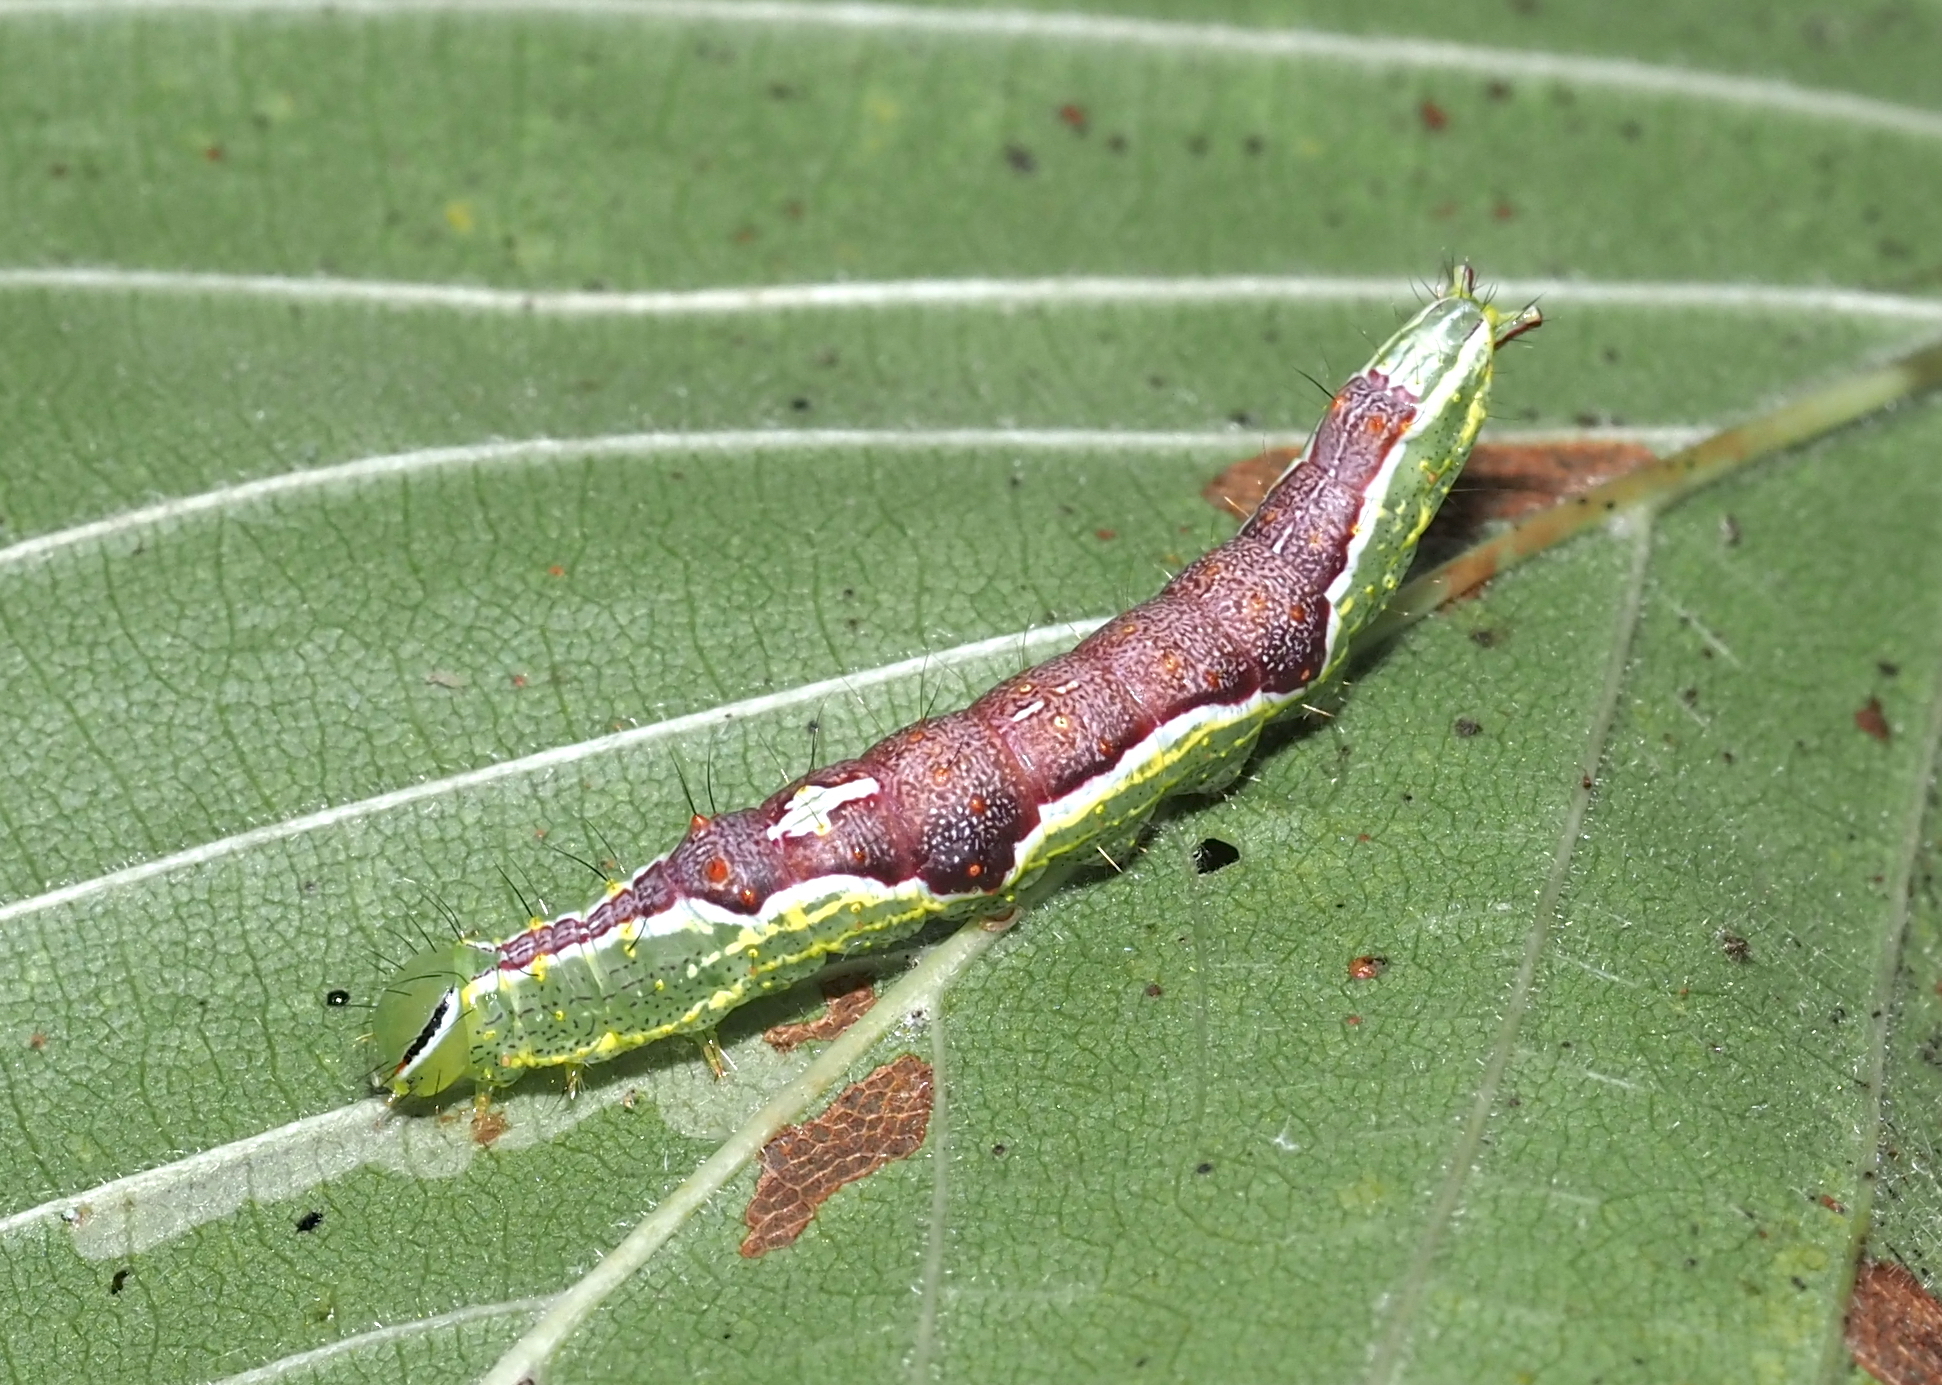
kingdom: Animalia
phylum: Arthropoda
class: Insecta
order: Lepidoptera
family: Notodontidae
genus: Lochmaeus
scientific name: Lochmaeus bilineata
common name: Double-lined prominent
